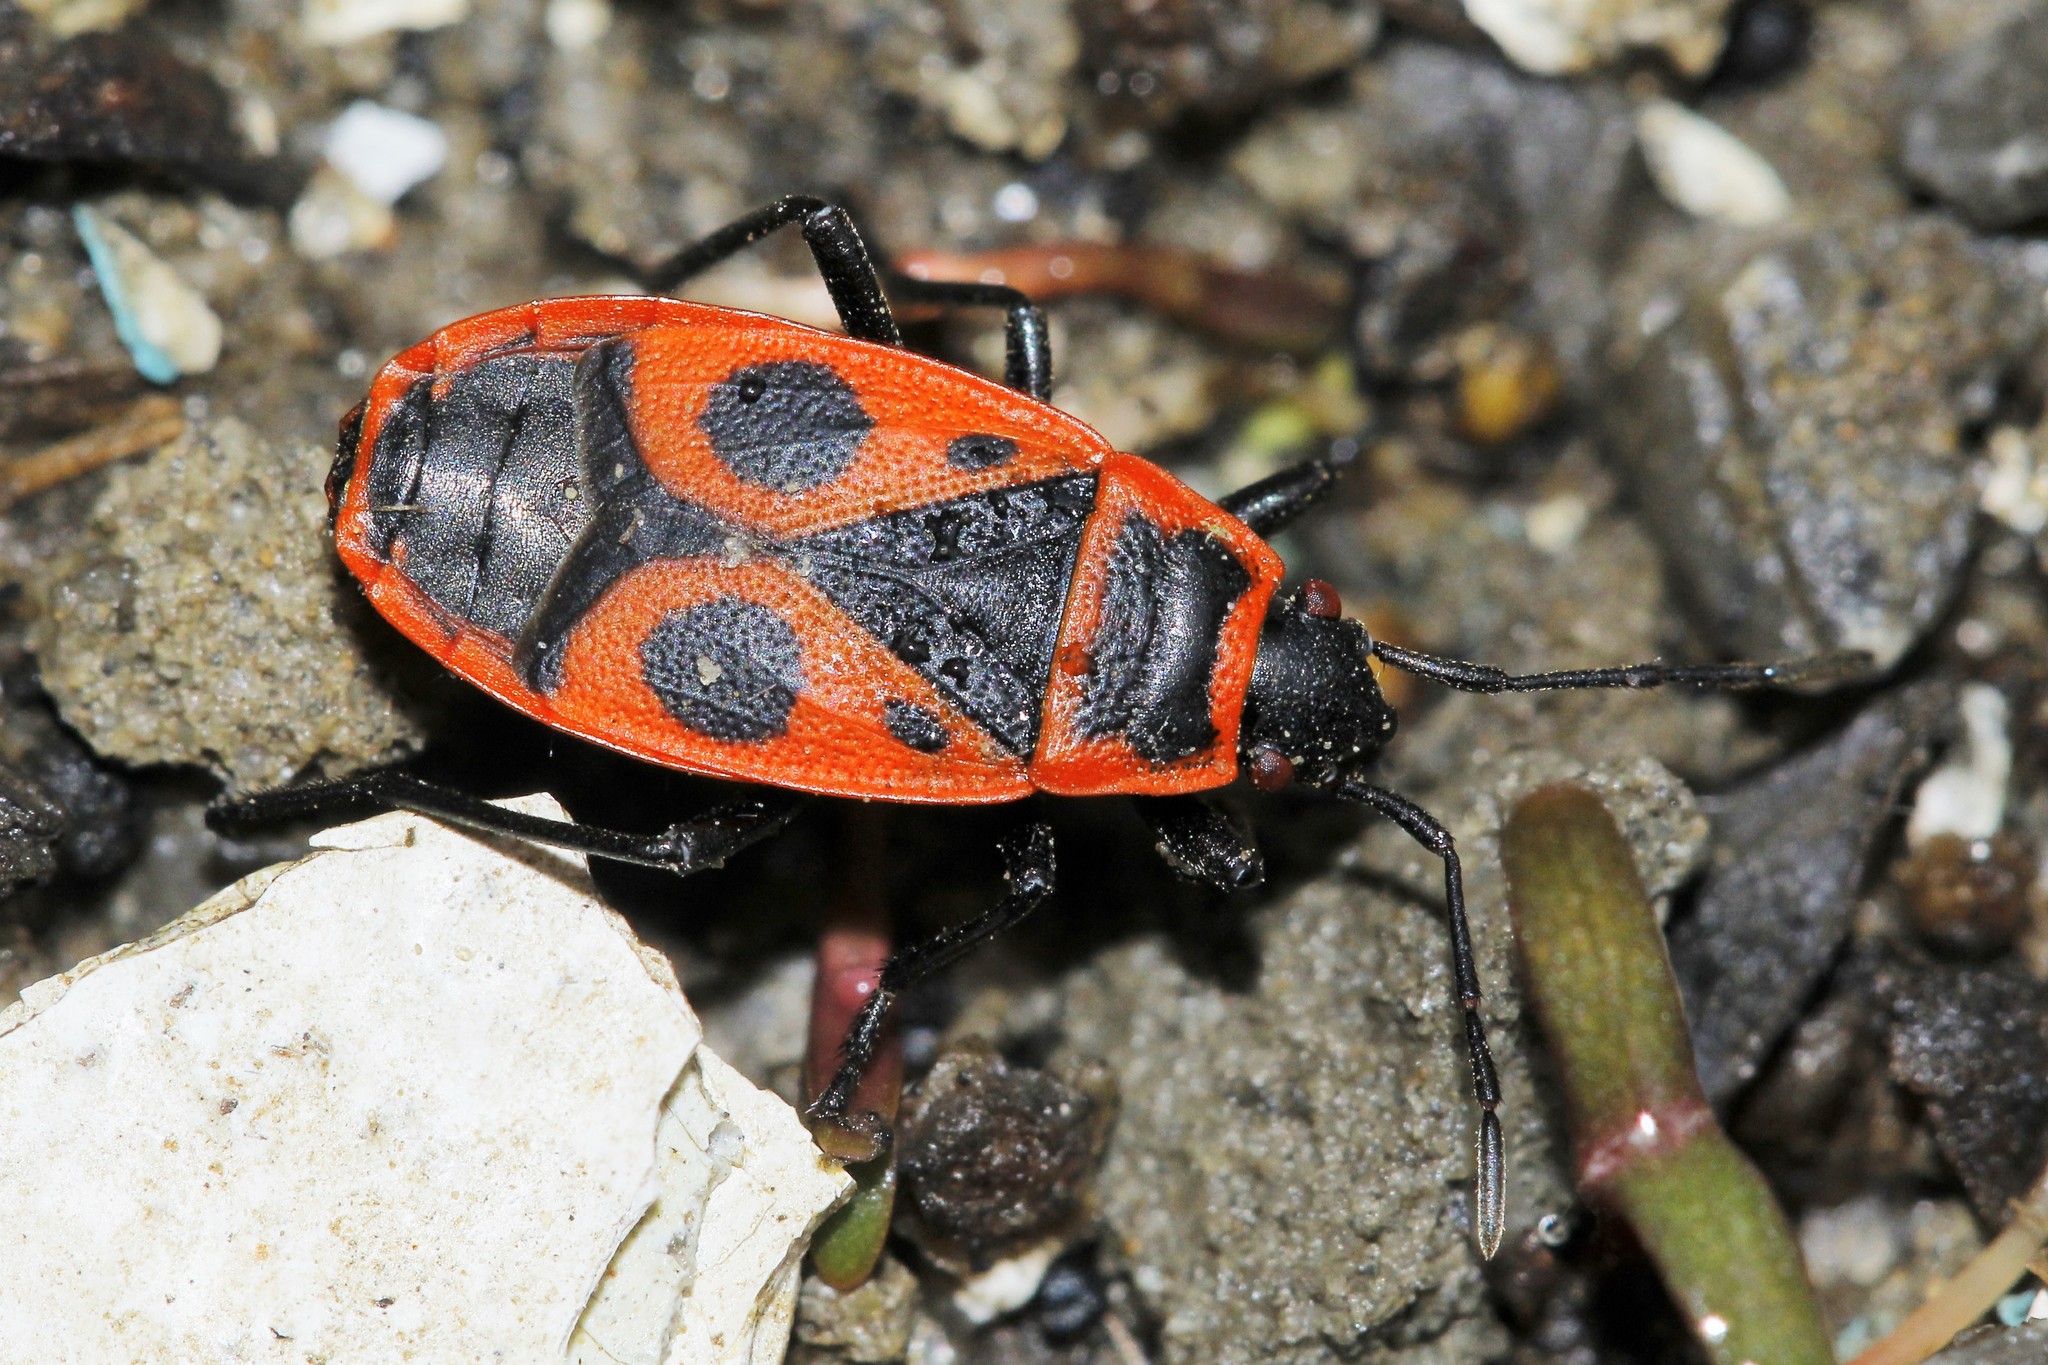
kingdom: Animalia
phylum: Arthropoda
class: Insecta
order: Hemiptera
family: Pyrrhocoridae
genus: Pyrrhocoris
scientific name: Pyrrhocoris apterus
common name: Firebug
